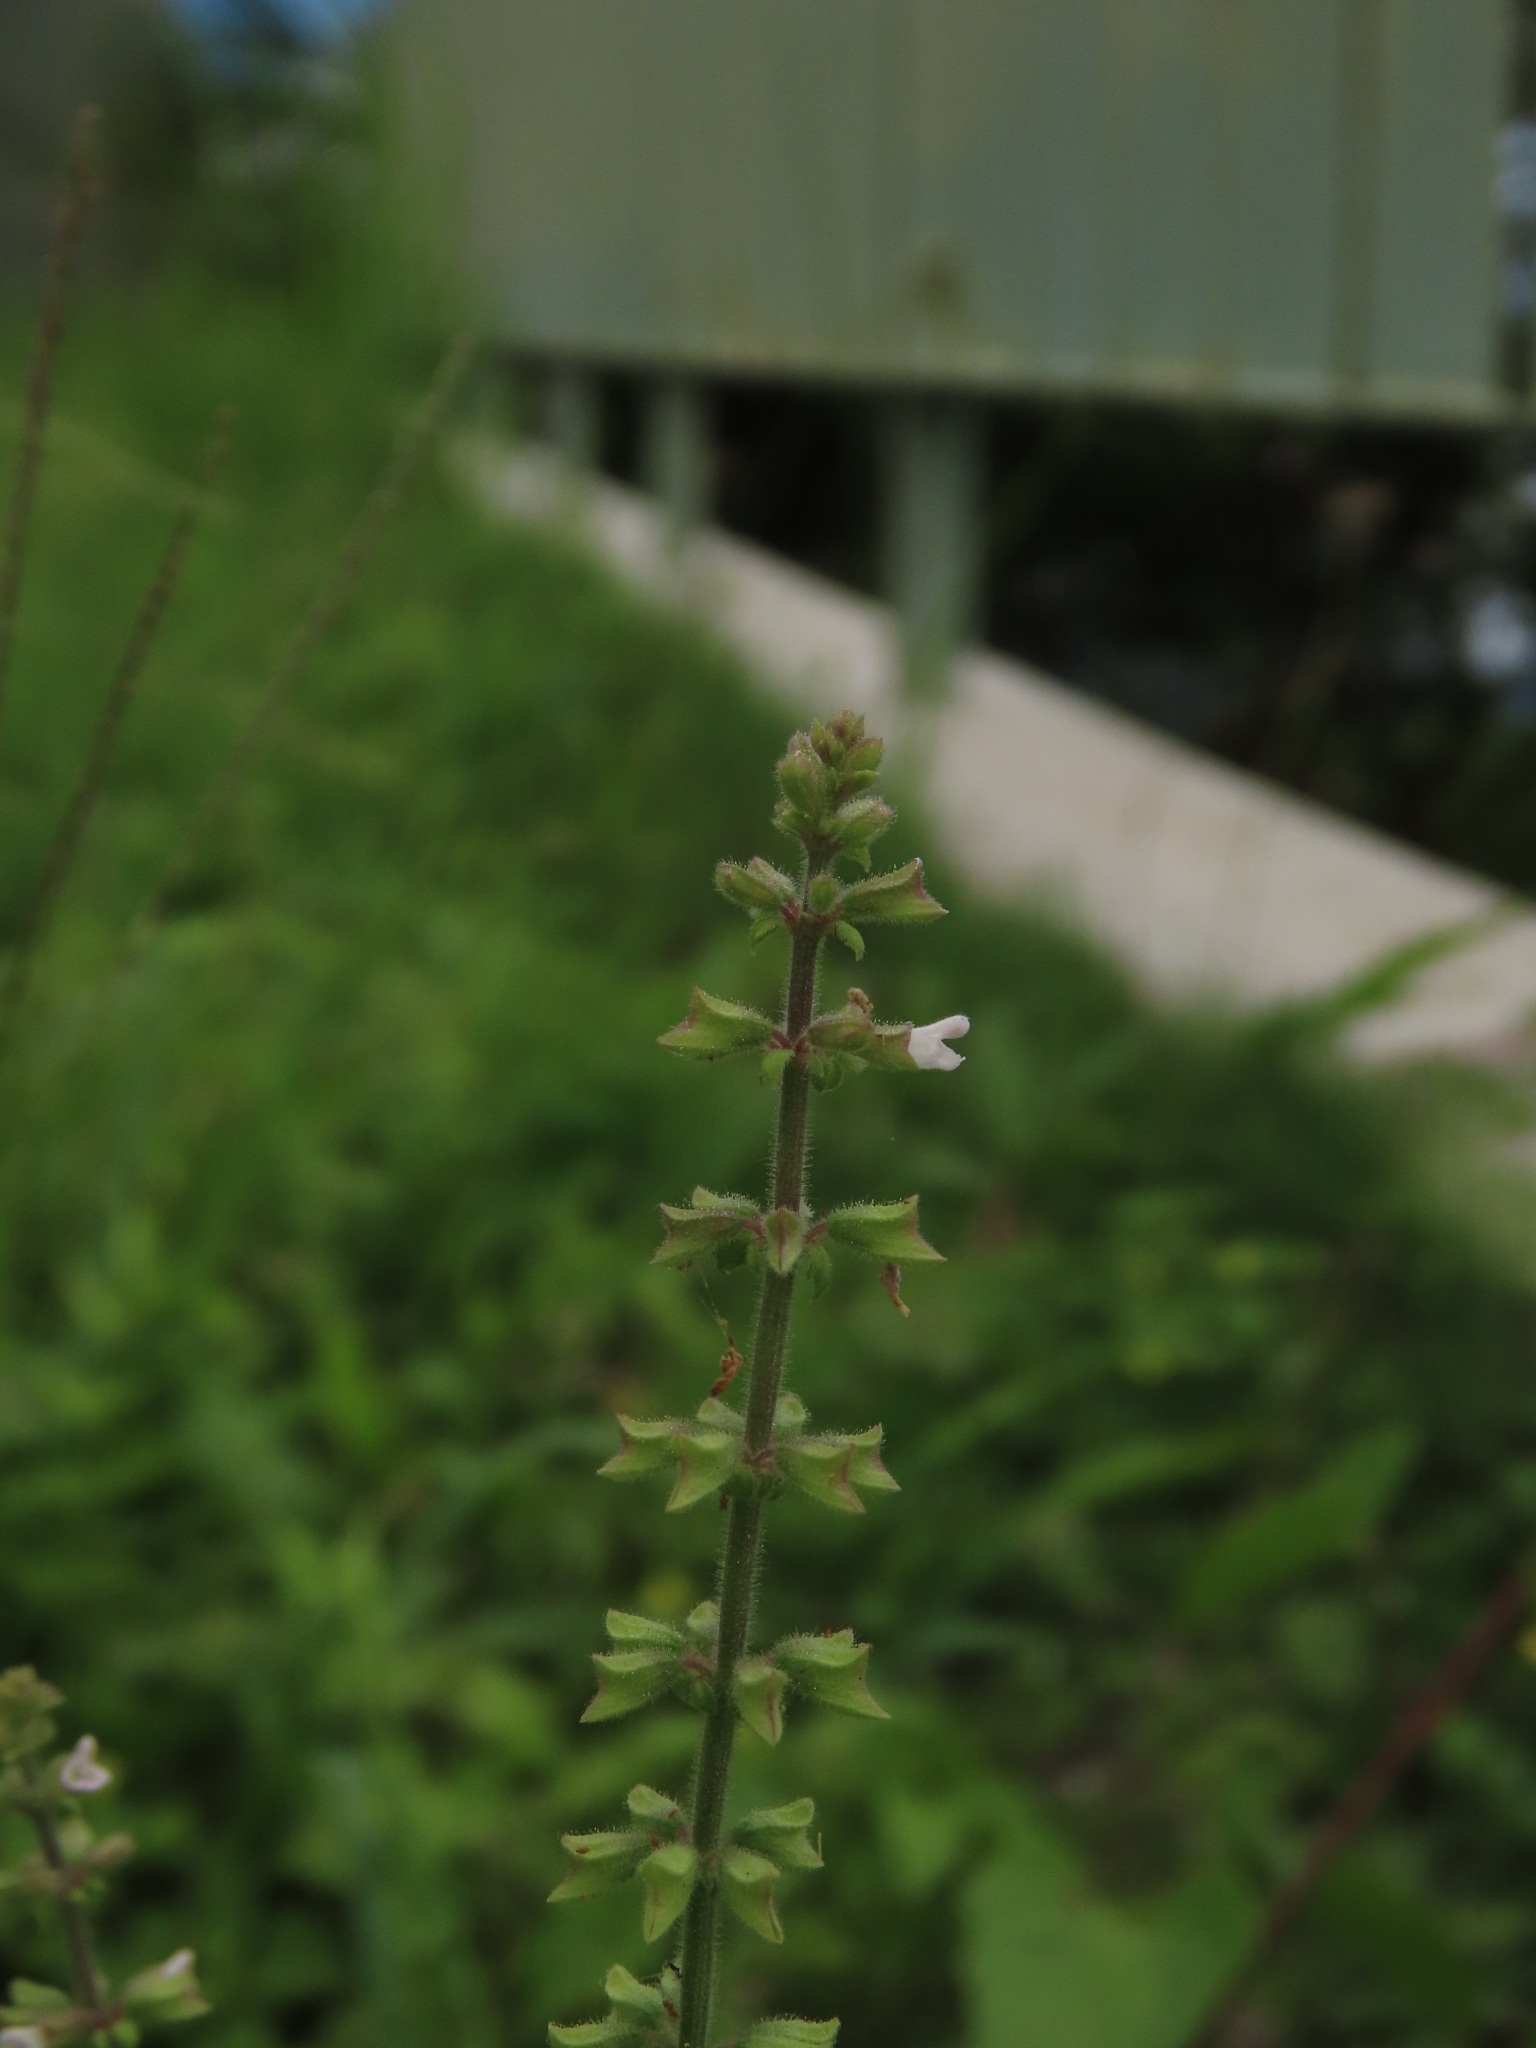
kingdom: Plantae
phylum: Tracheophyta
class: Magnoliopsida
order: Lamiales
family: Lamiaceae
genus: Salvia
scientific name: Salvia plebeia
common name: Australian sage
